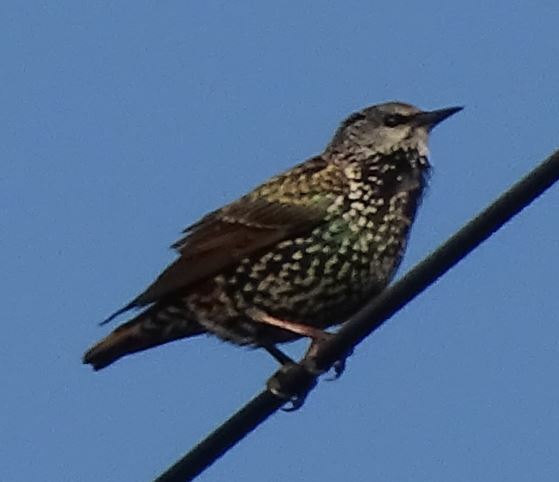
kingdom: Animalia
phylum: Chordata
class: Aves
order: Passeriformes
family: Sturnidae
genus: Sturnus
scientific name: Sturnus vulgaris
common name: Common starling
